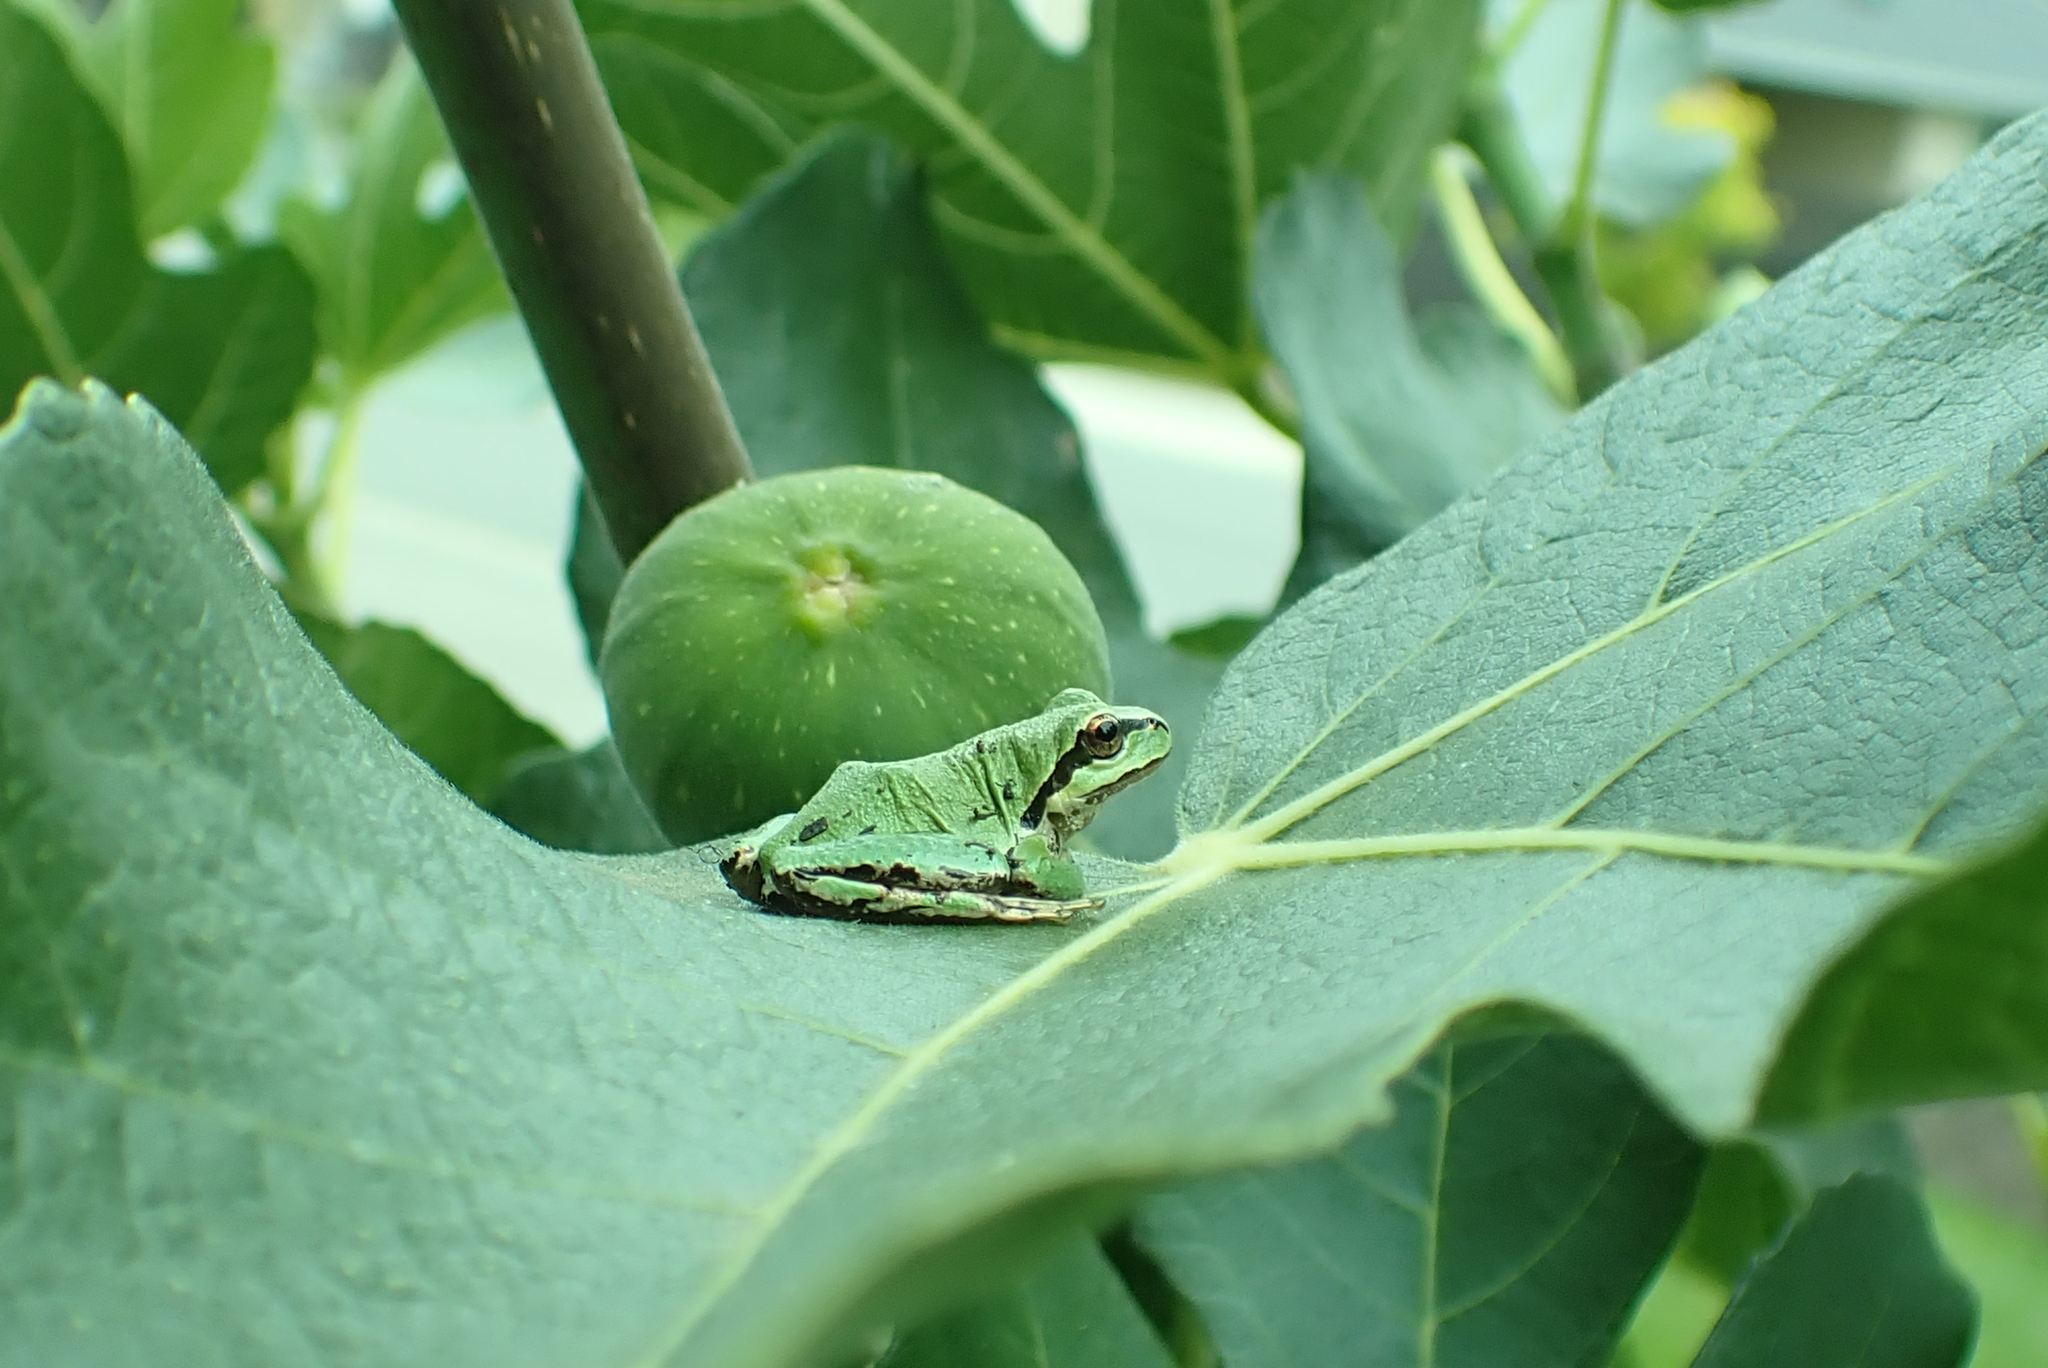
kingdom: Animalia
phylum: Chordata
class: Amphibia
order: Anura
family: Hylidae
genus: Pseudacris
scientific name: Pseudacris regilla
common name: Pacific chorus frog
